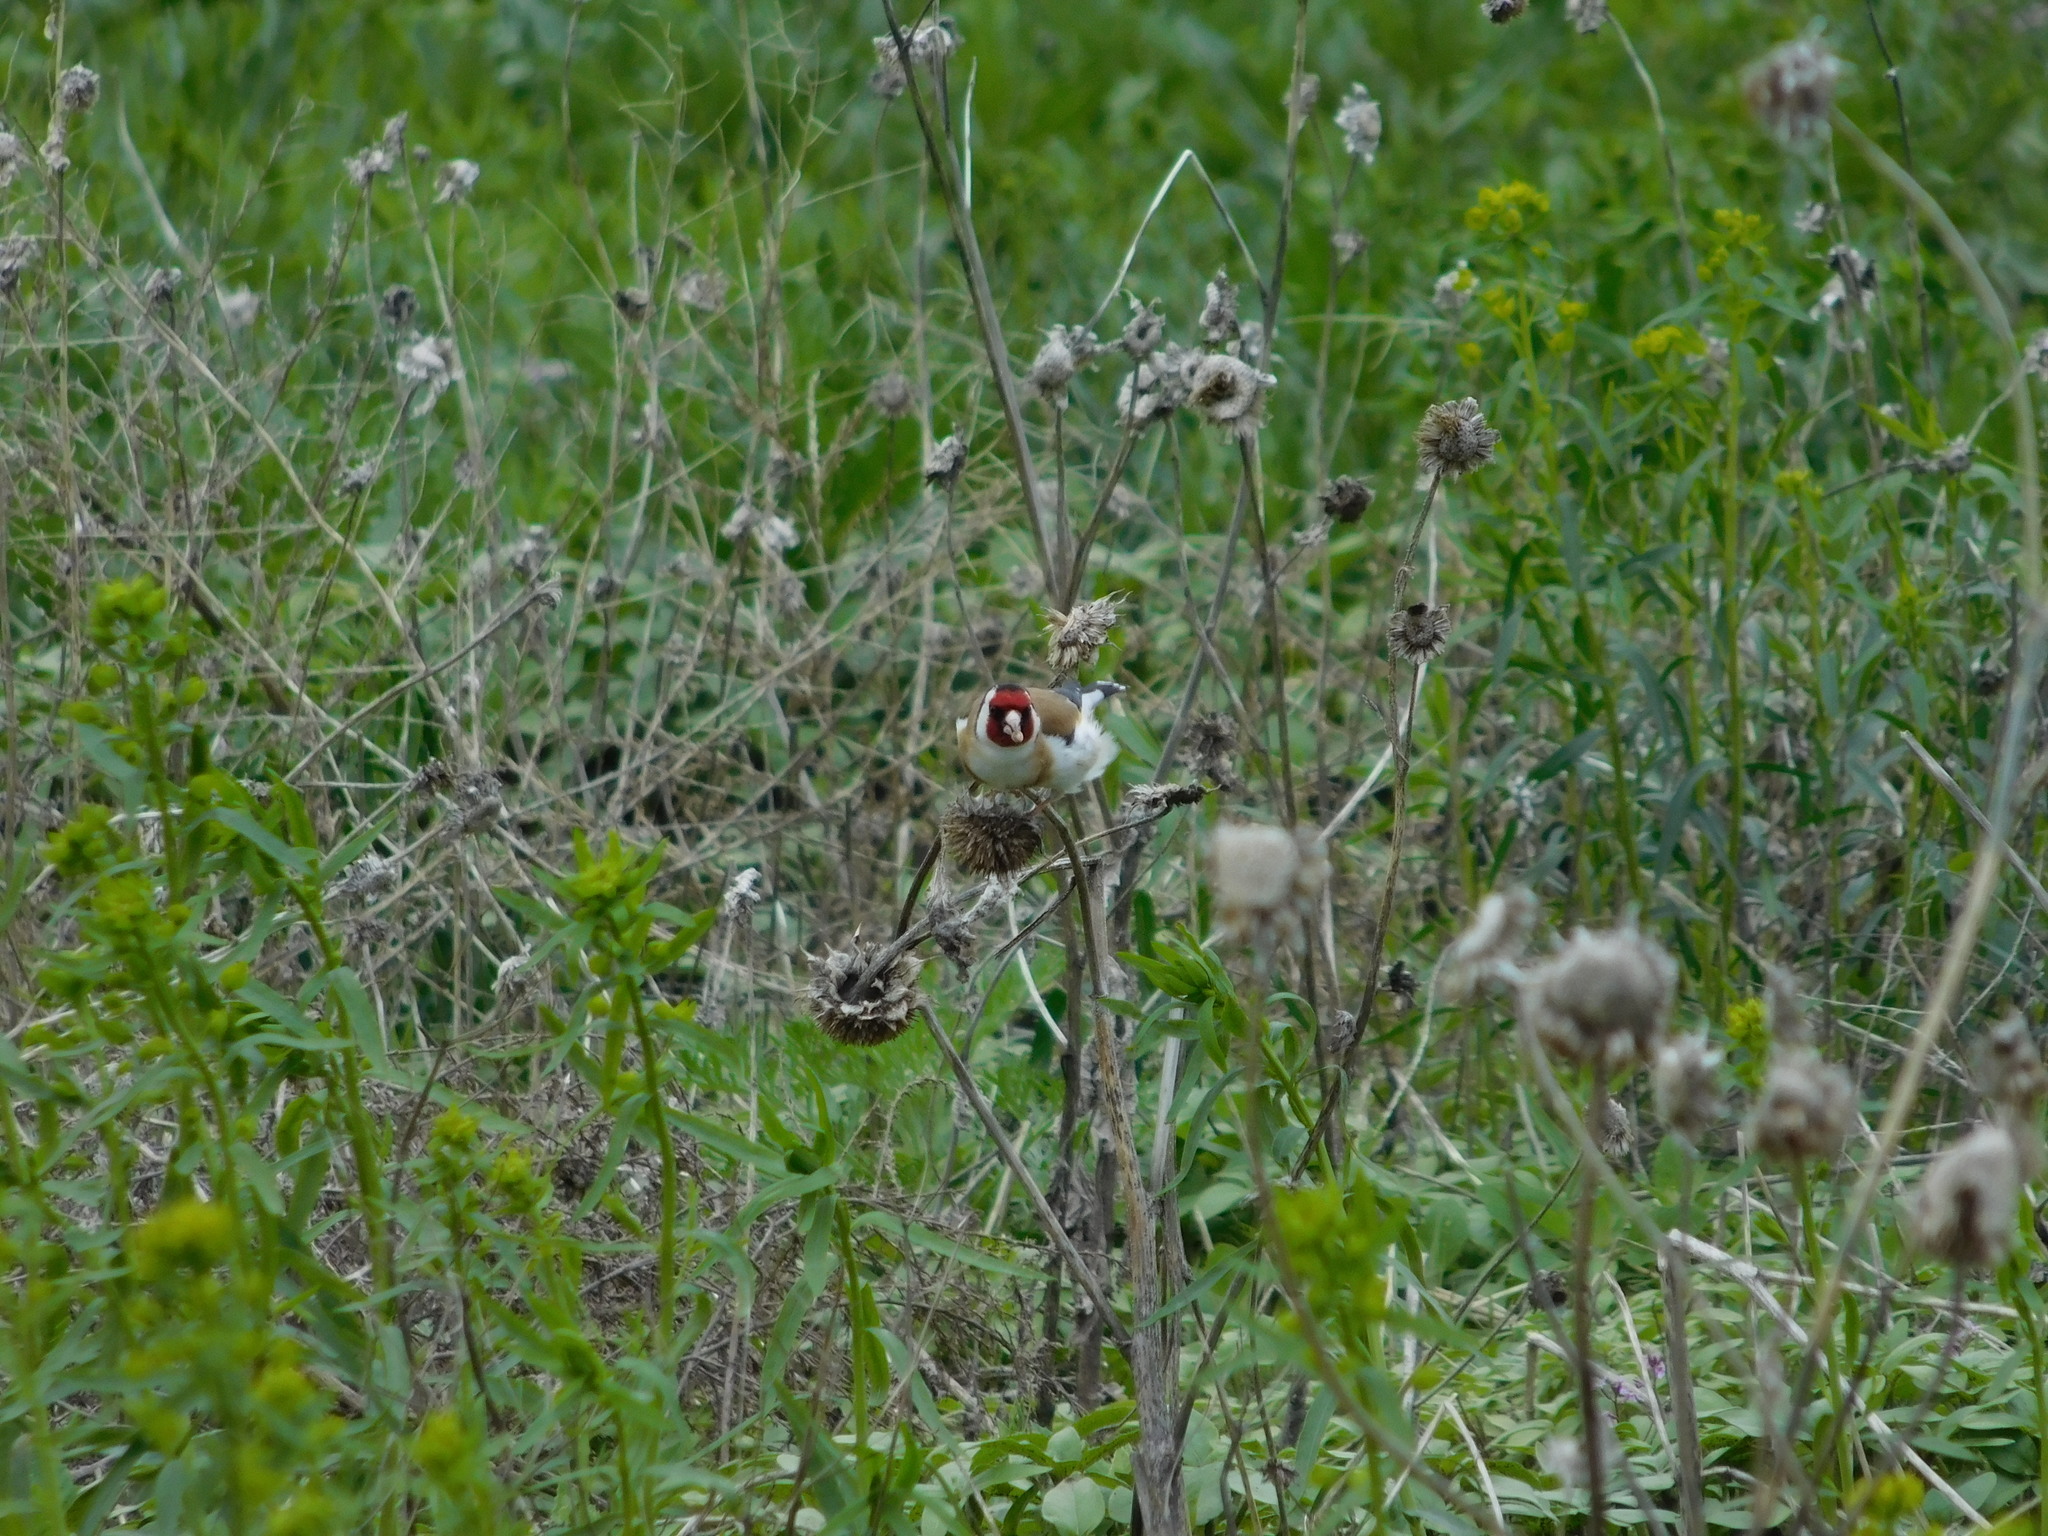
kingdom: Animalia
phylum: Chordata
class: Aves
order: Passeriformes
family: Fringillidae
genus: Carduelis
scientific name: Carduelis carduelis
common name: European goldfinch
